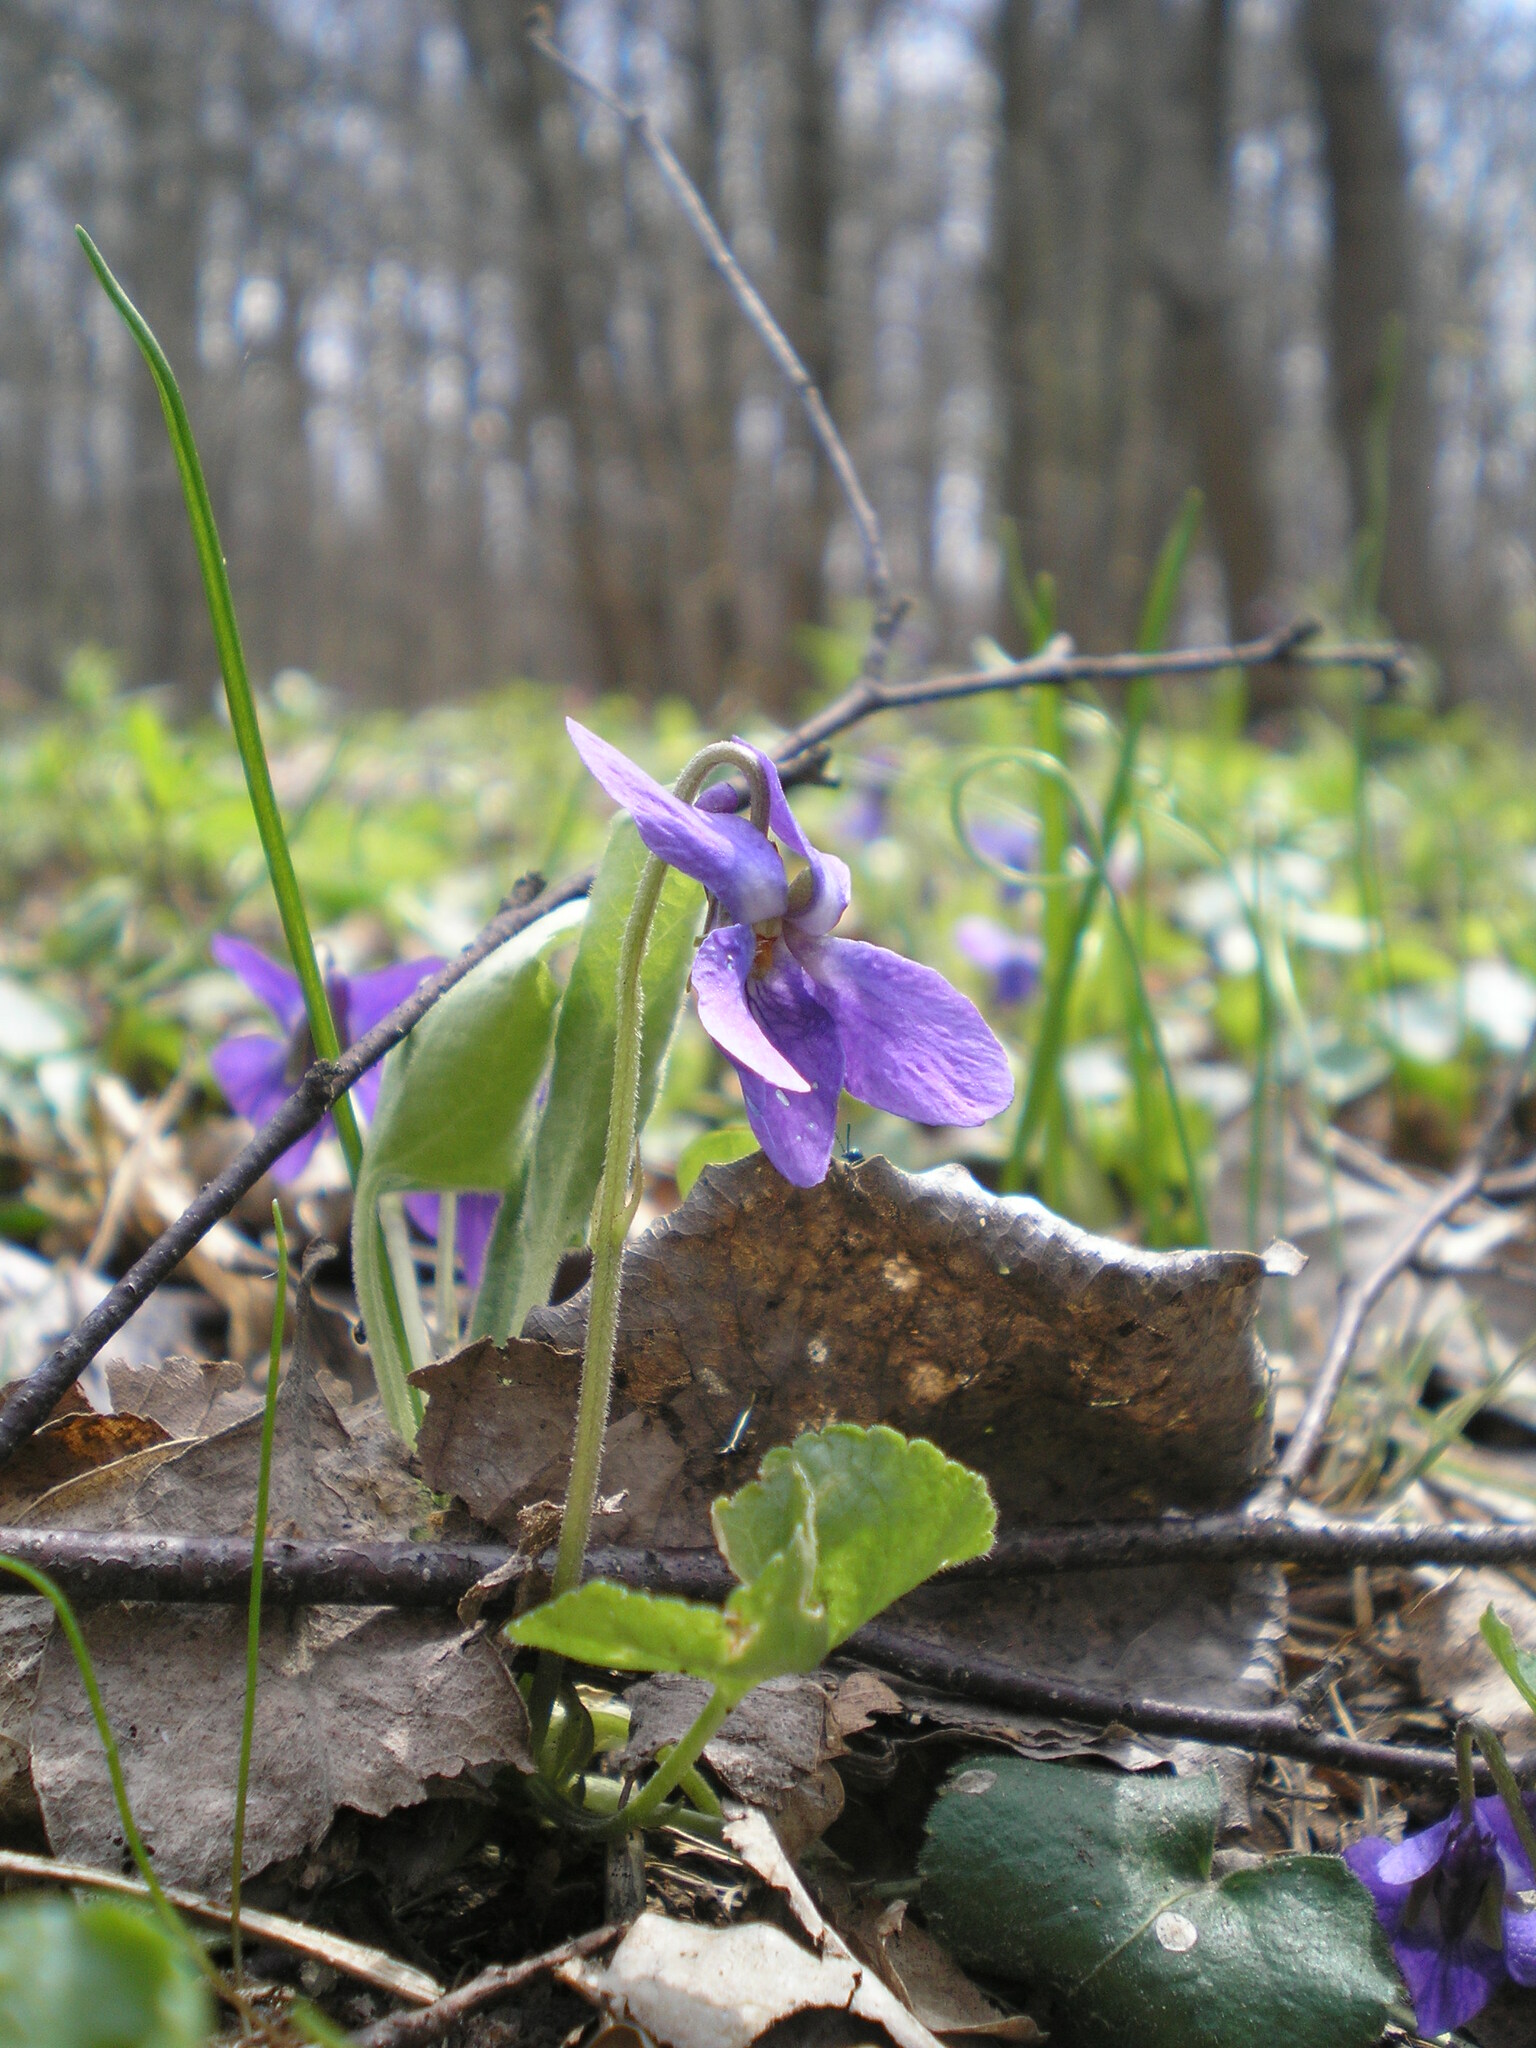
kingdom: Plantae
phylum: Tracheophyta
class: Magnoliopsida
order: Malpighiales
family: Violaceae
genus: Viola
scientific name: Viola odorata
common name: Sweet violet
